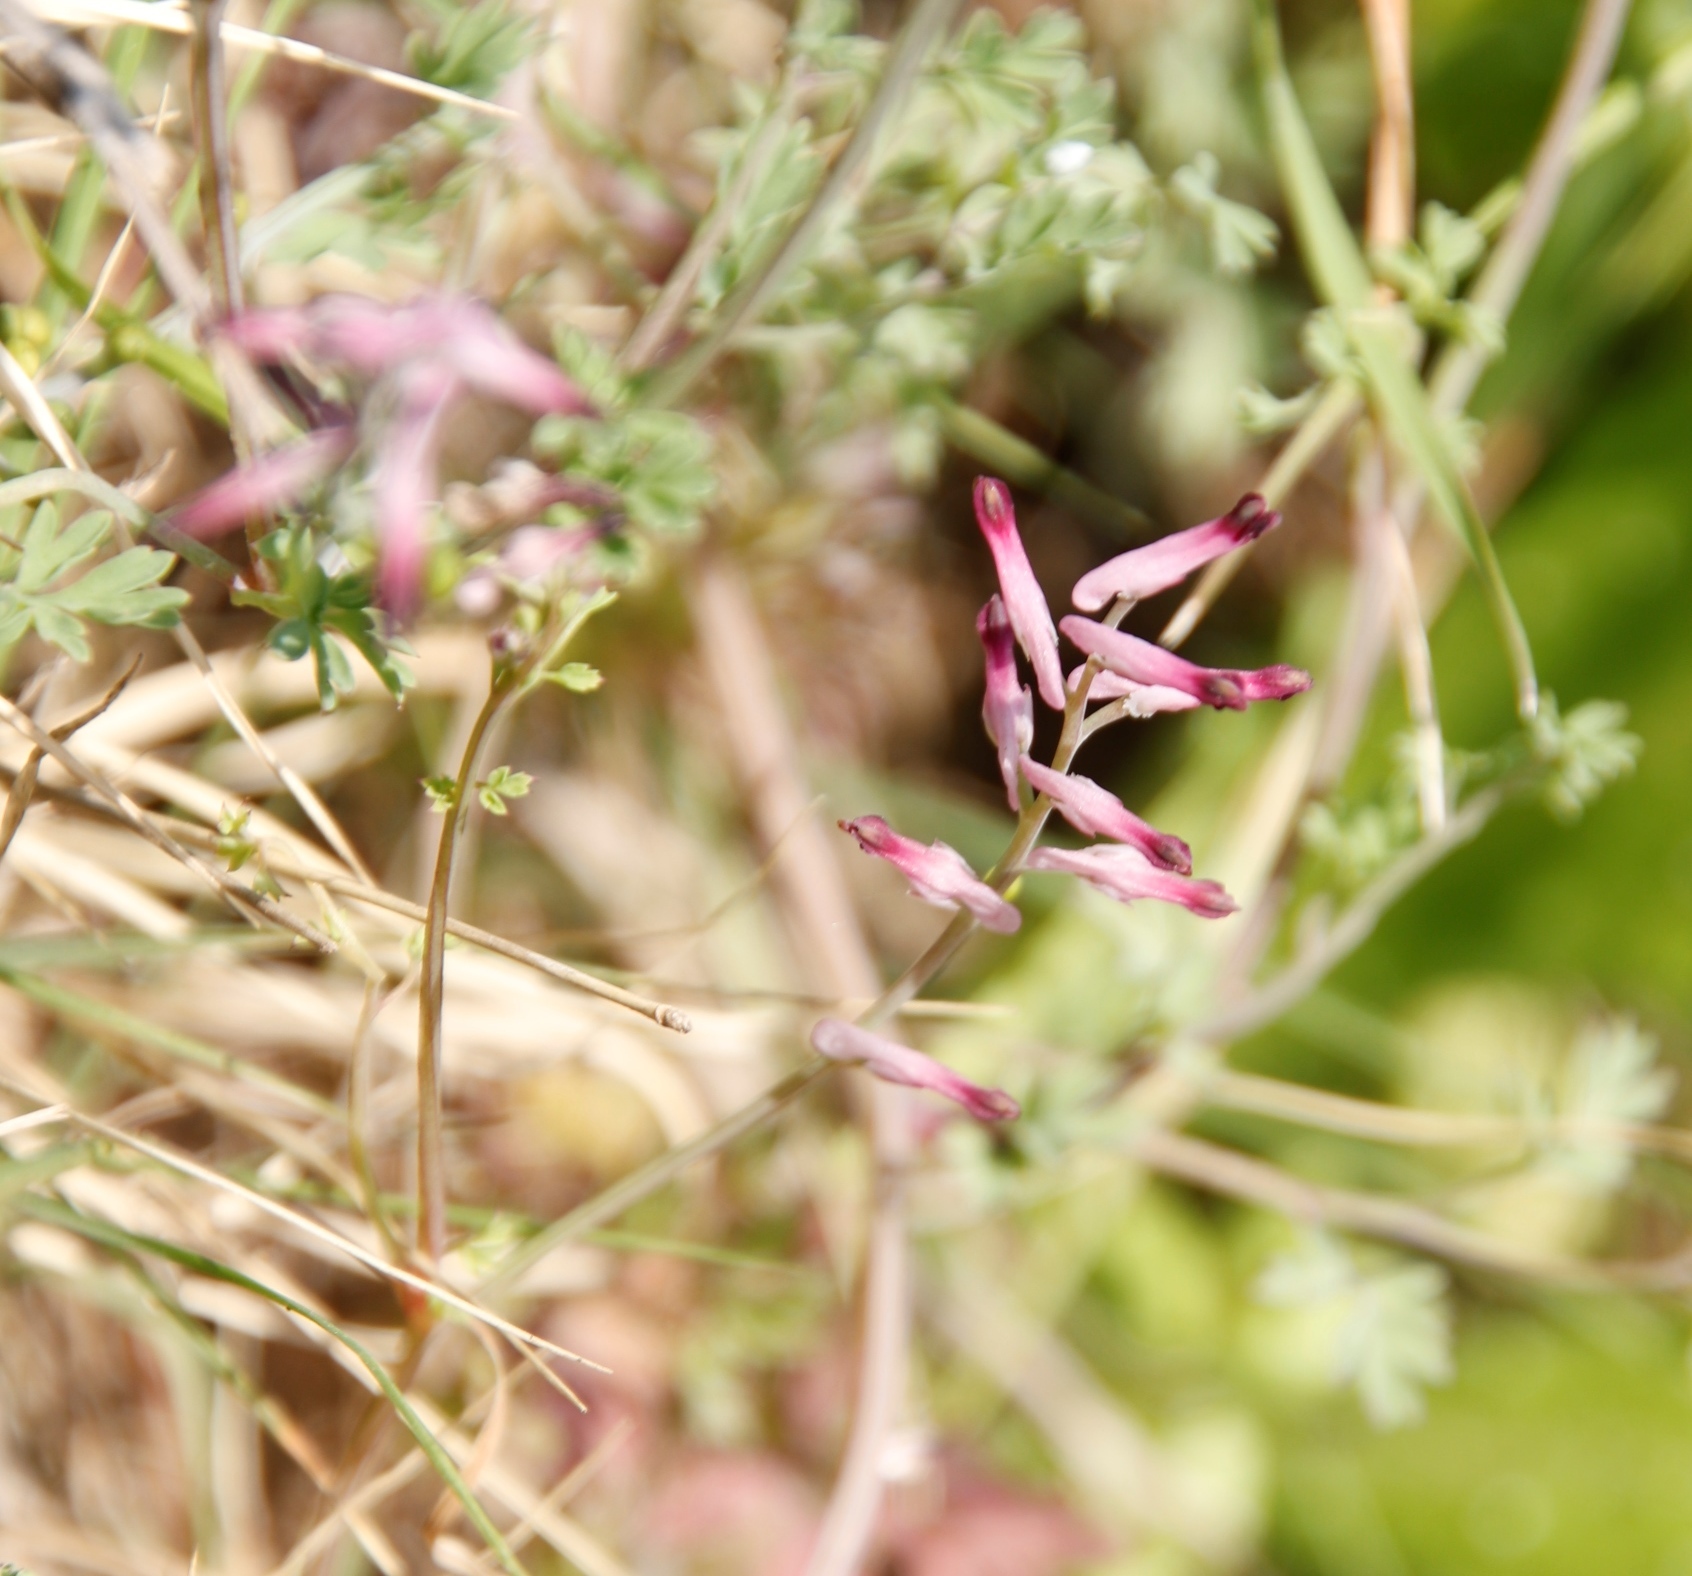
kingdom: Plantae
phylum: Tracheophyta
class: Magnoliopsida
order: Ranunculales
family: Papaveraceae
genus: Fumaria
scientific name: Fumaria muralis
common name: Common ramping-fumitory
